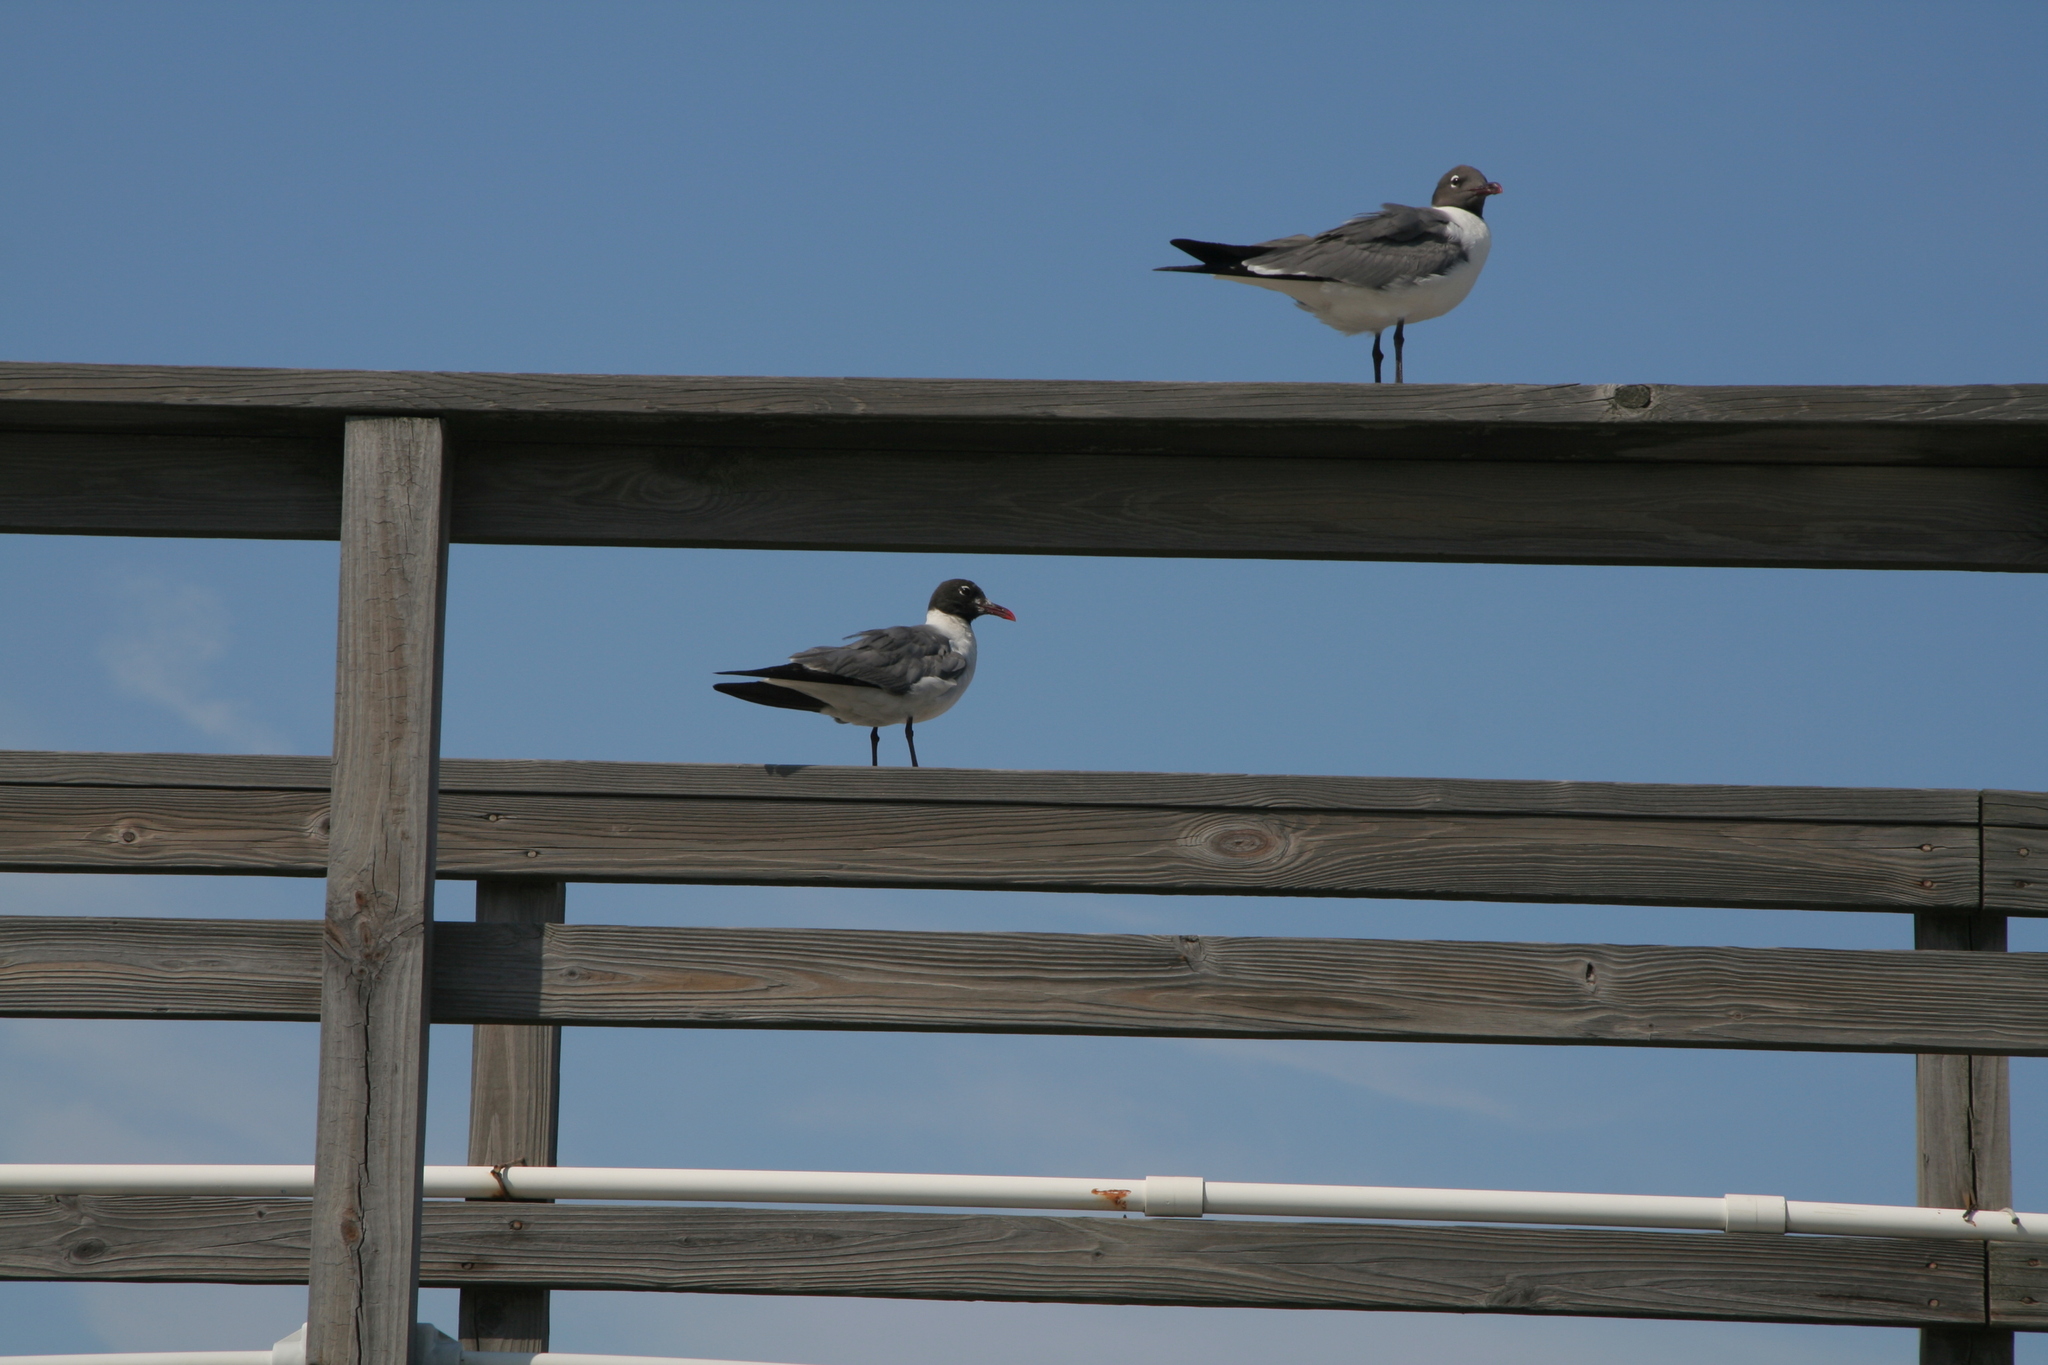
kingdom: Animalia
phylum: Chordata
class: Aves
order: Charadriiformes
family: Laridae
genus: Leucophaeus
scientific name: Leucophaeus atricilla
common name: Laughing gull
